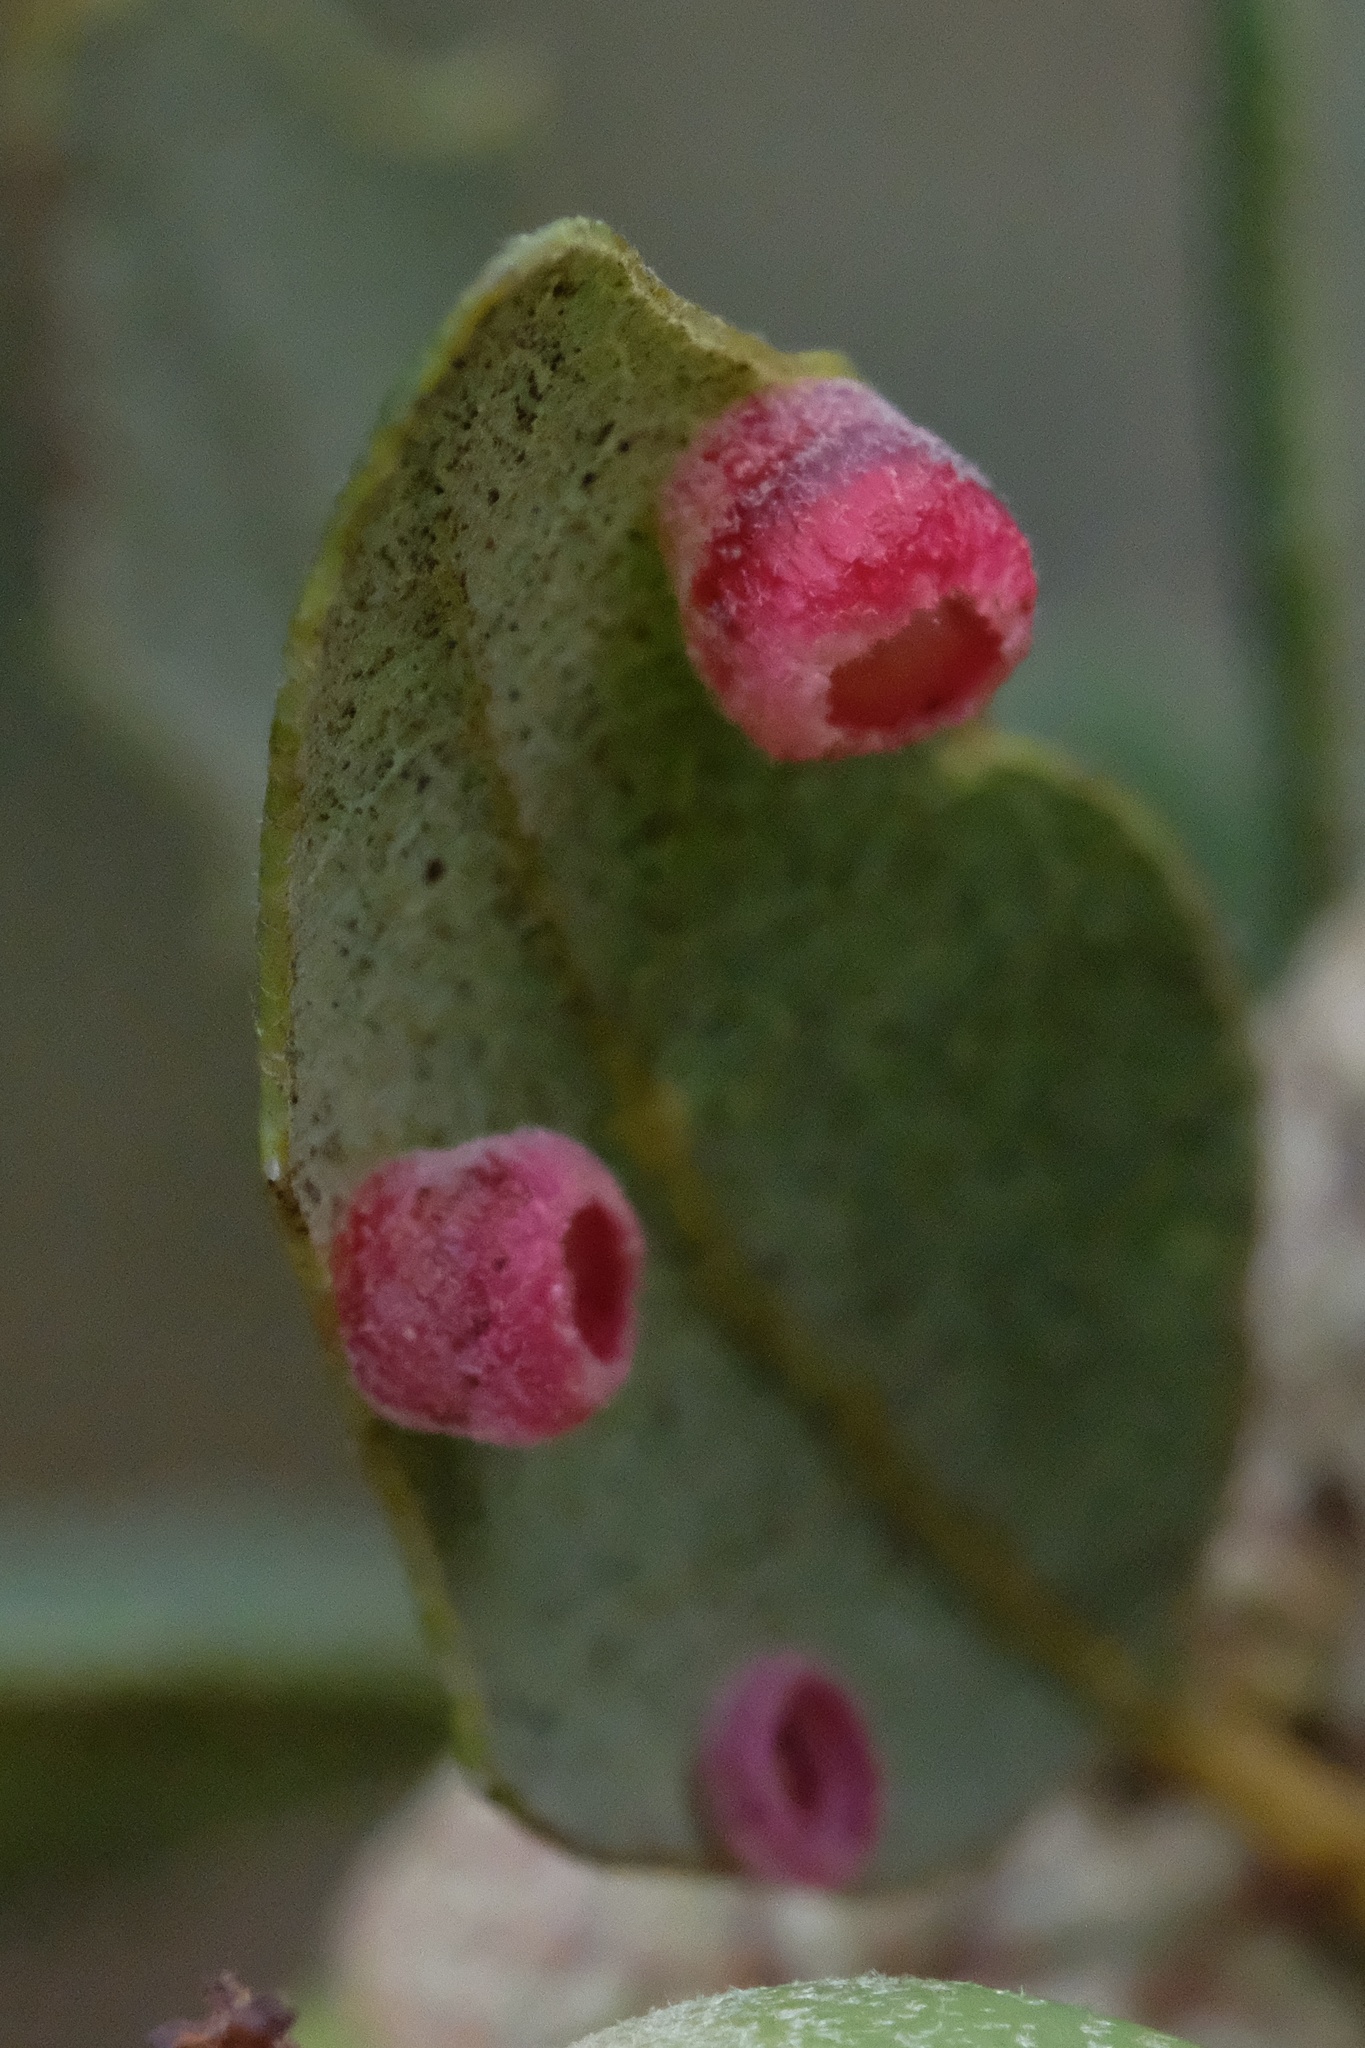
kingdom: Animalia
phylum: Arthropoda
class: Insecta
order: Hymenoptera
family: Cynipidae
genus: Phylloteras
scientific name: Phylloteras
